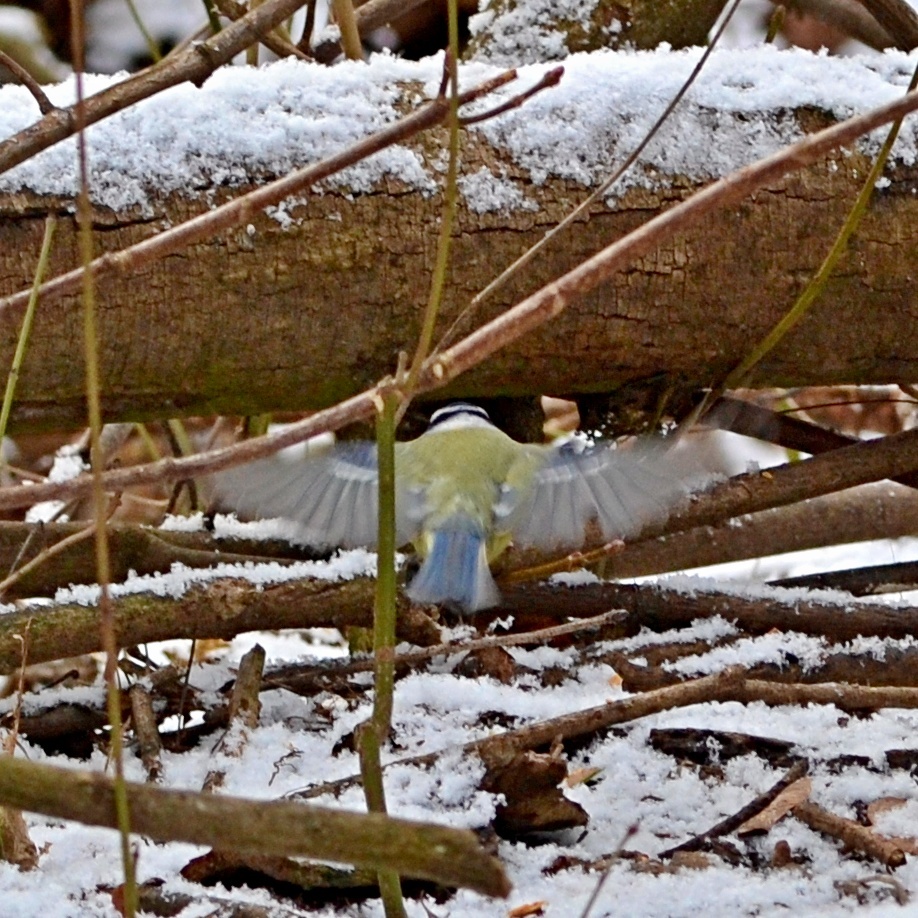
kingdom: Animalia
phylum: Chordata
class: Aves
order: Passeriformes
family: Paridae
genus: Parus
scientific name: Parus major
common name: Great tit
